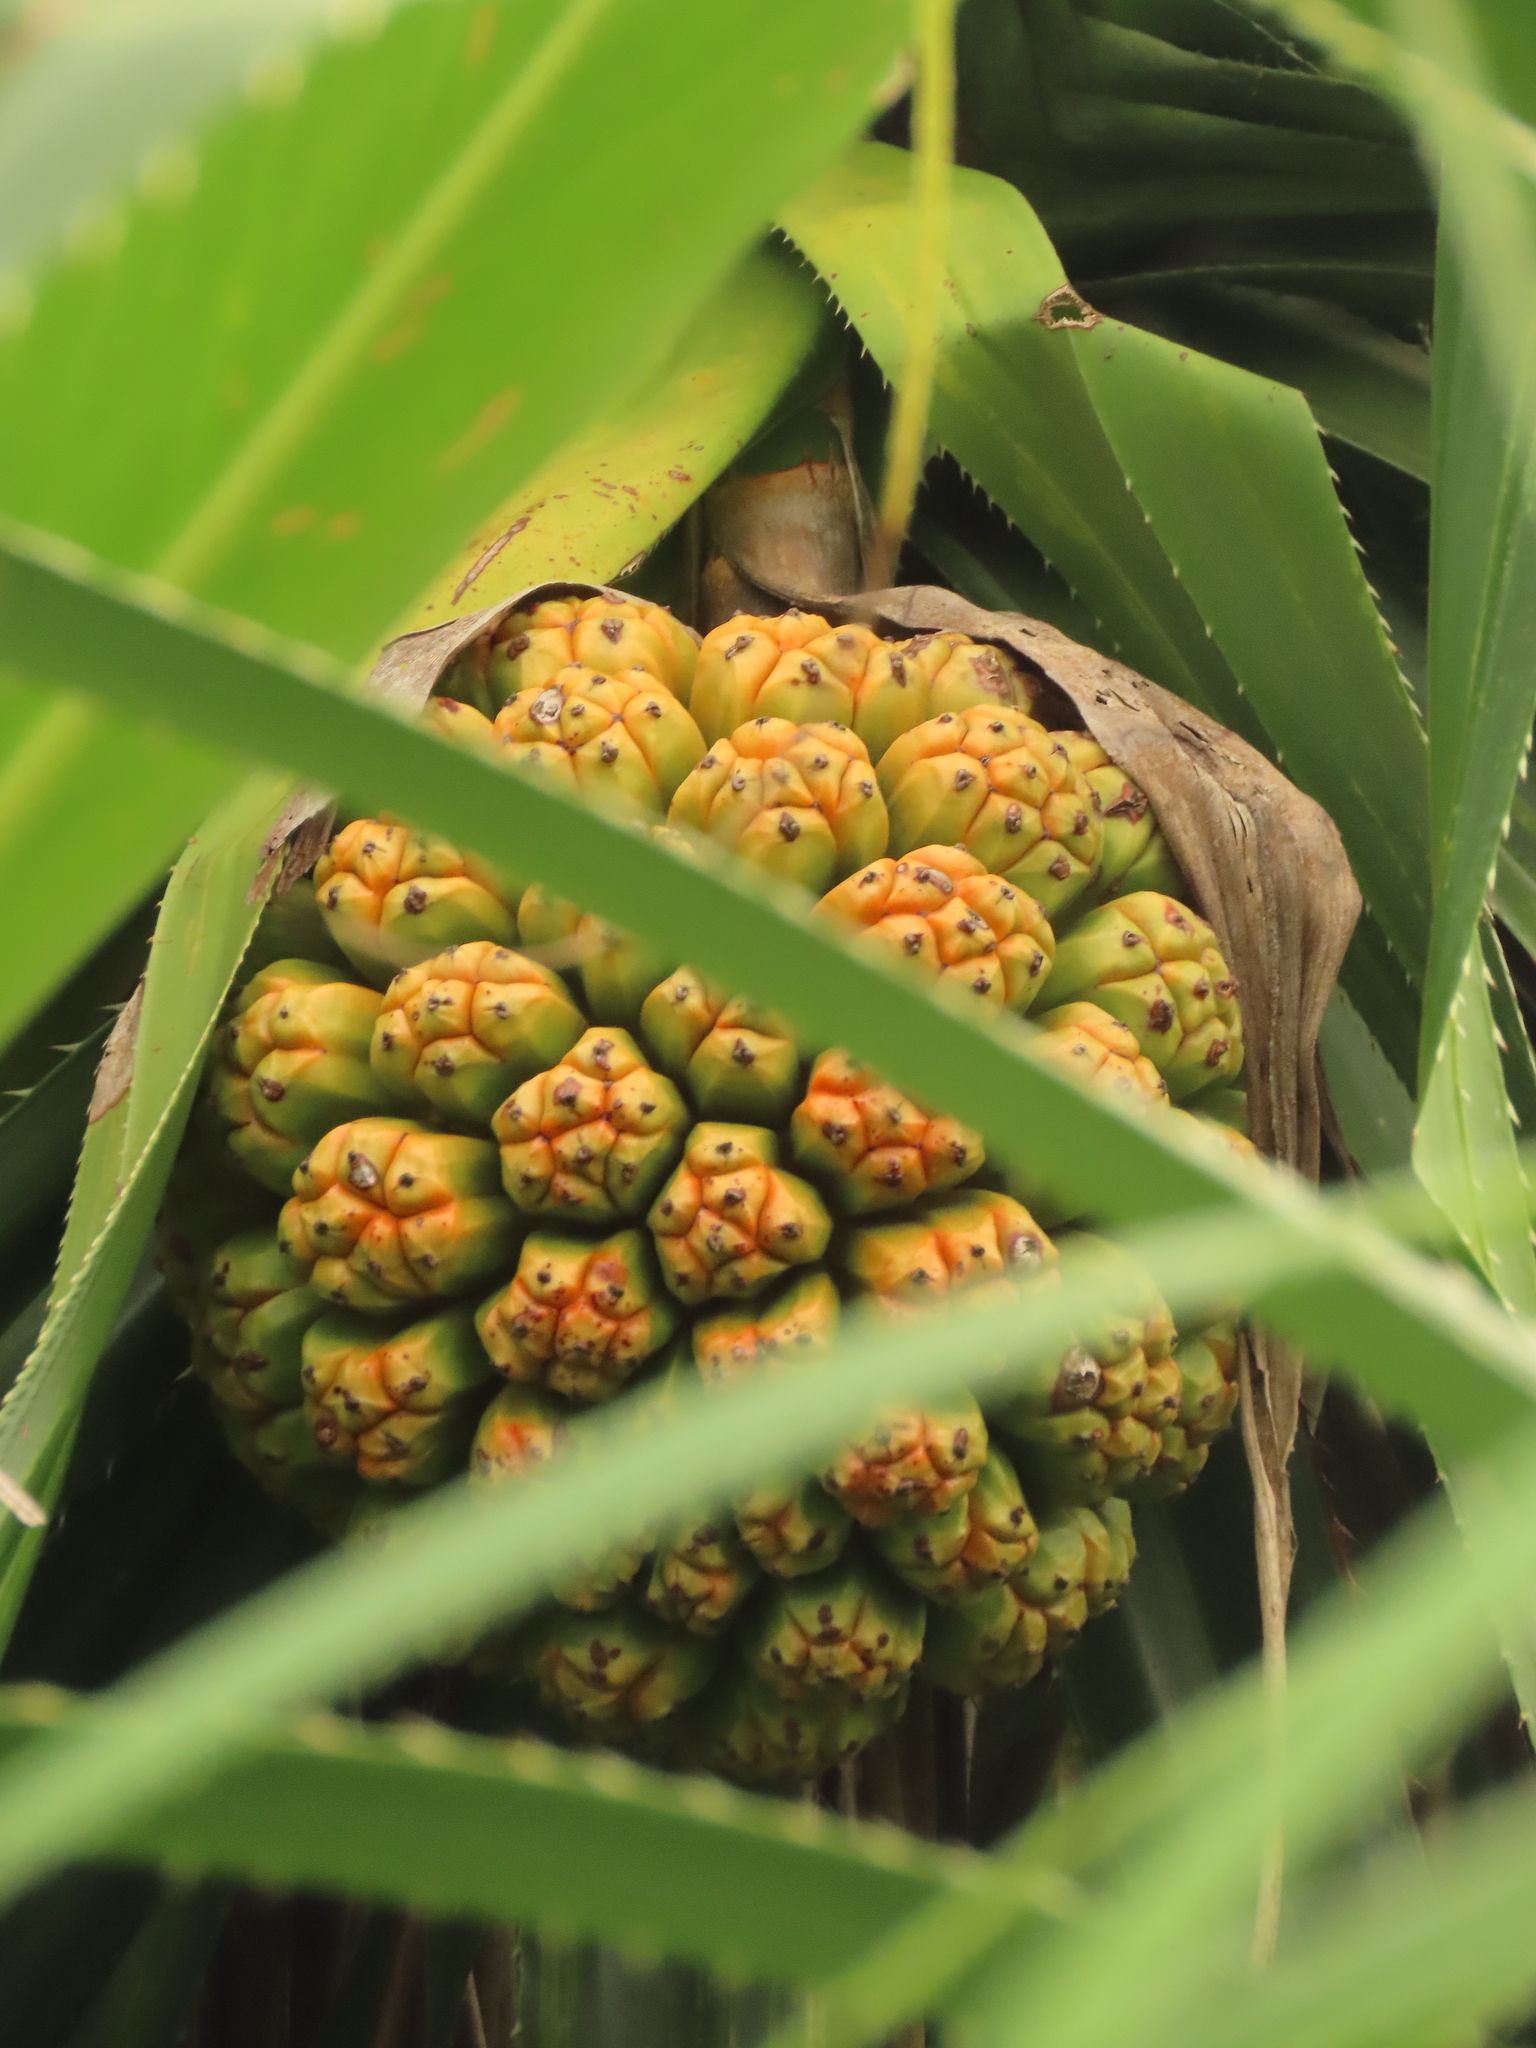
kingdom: Plantae
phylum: Tracheophyta
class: Liliopsida
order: Pandanales
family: Pandanaceae
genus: Pandanus
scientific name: Pandanus odorifer
